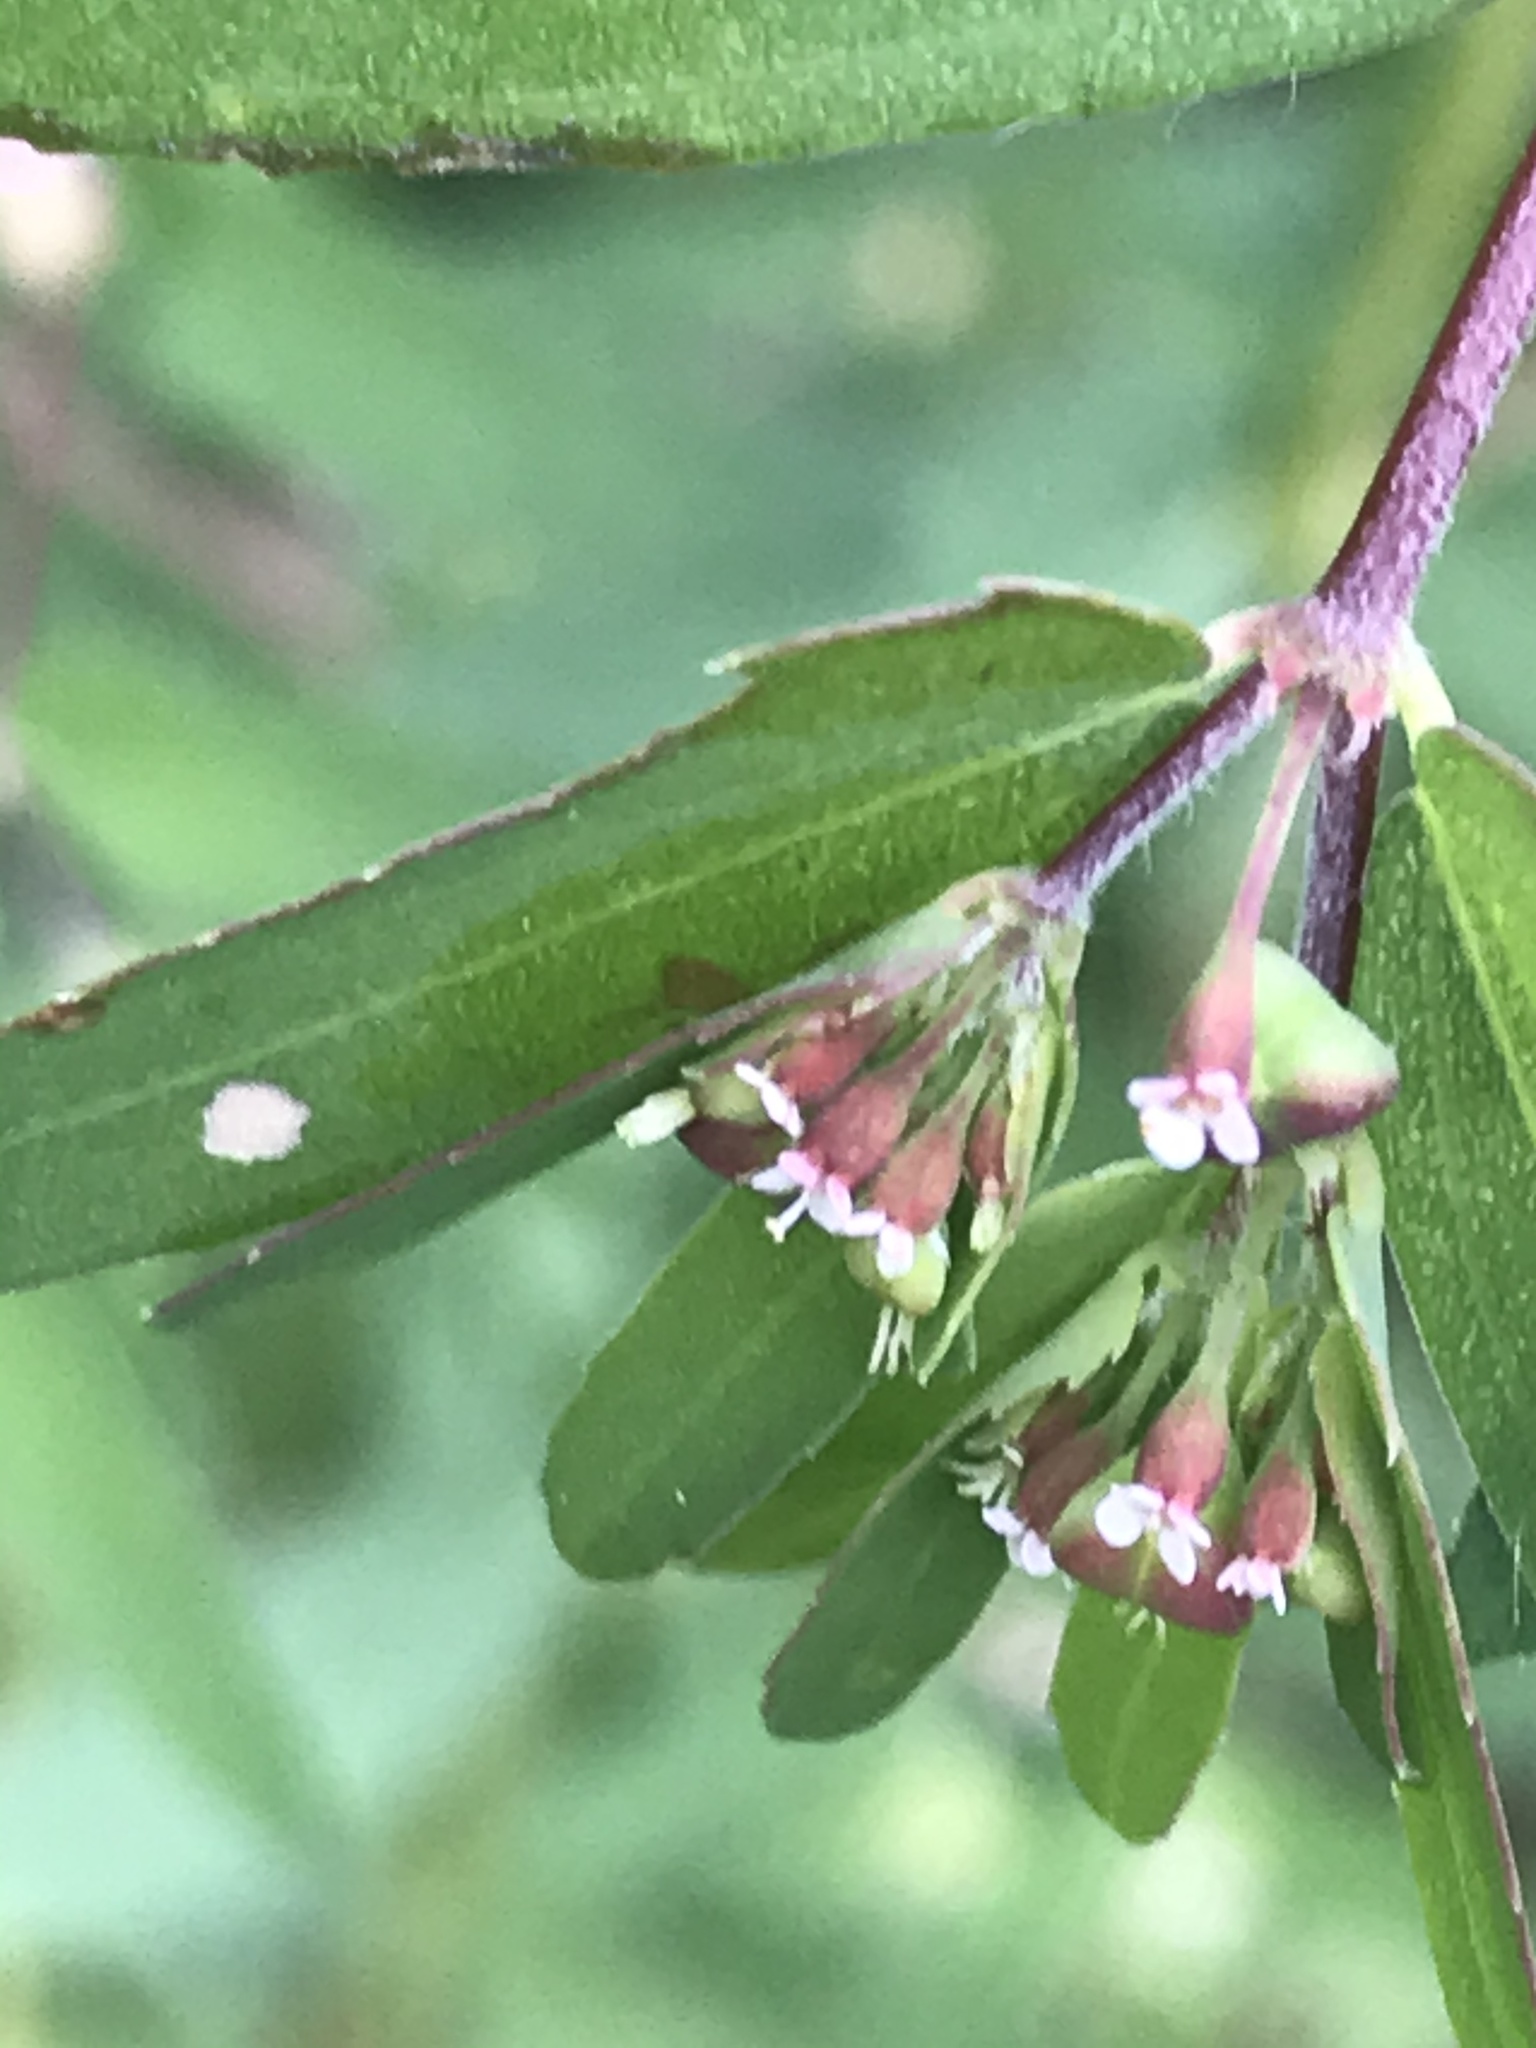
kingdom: Plantae
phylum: Tracheophyta
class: Magnoliopsida
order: Malpighiales
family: Euphorbiaceae
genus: Euphorbia
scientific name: Euphorbia nutans
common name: Eyebane
